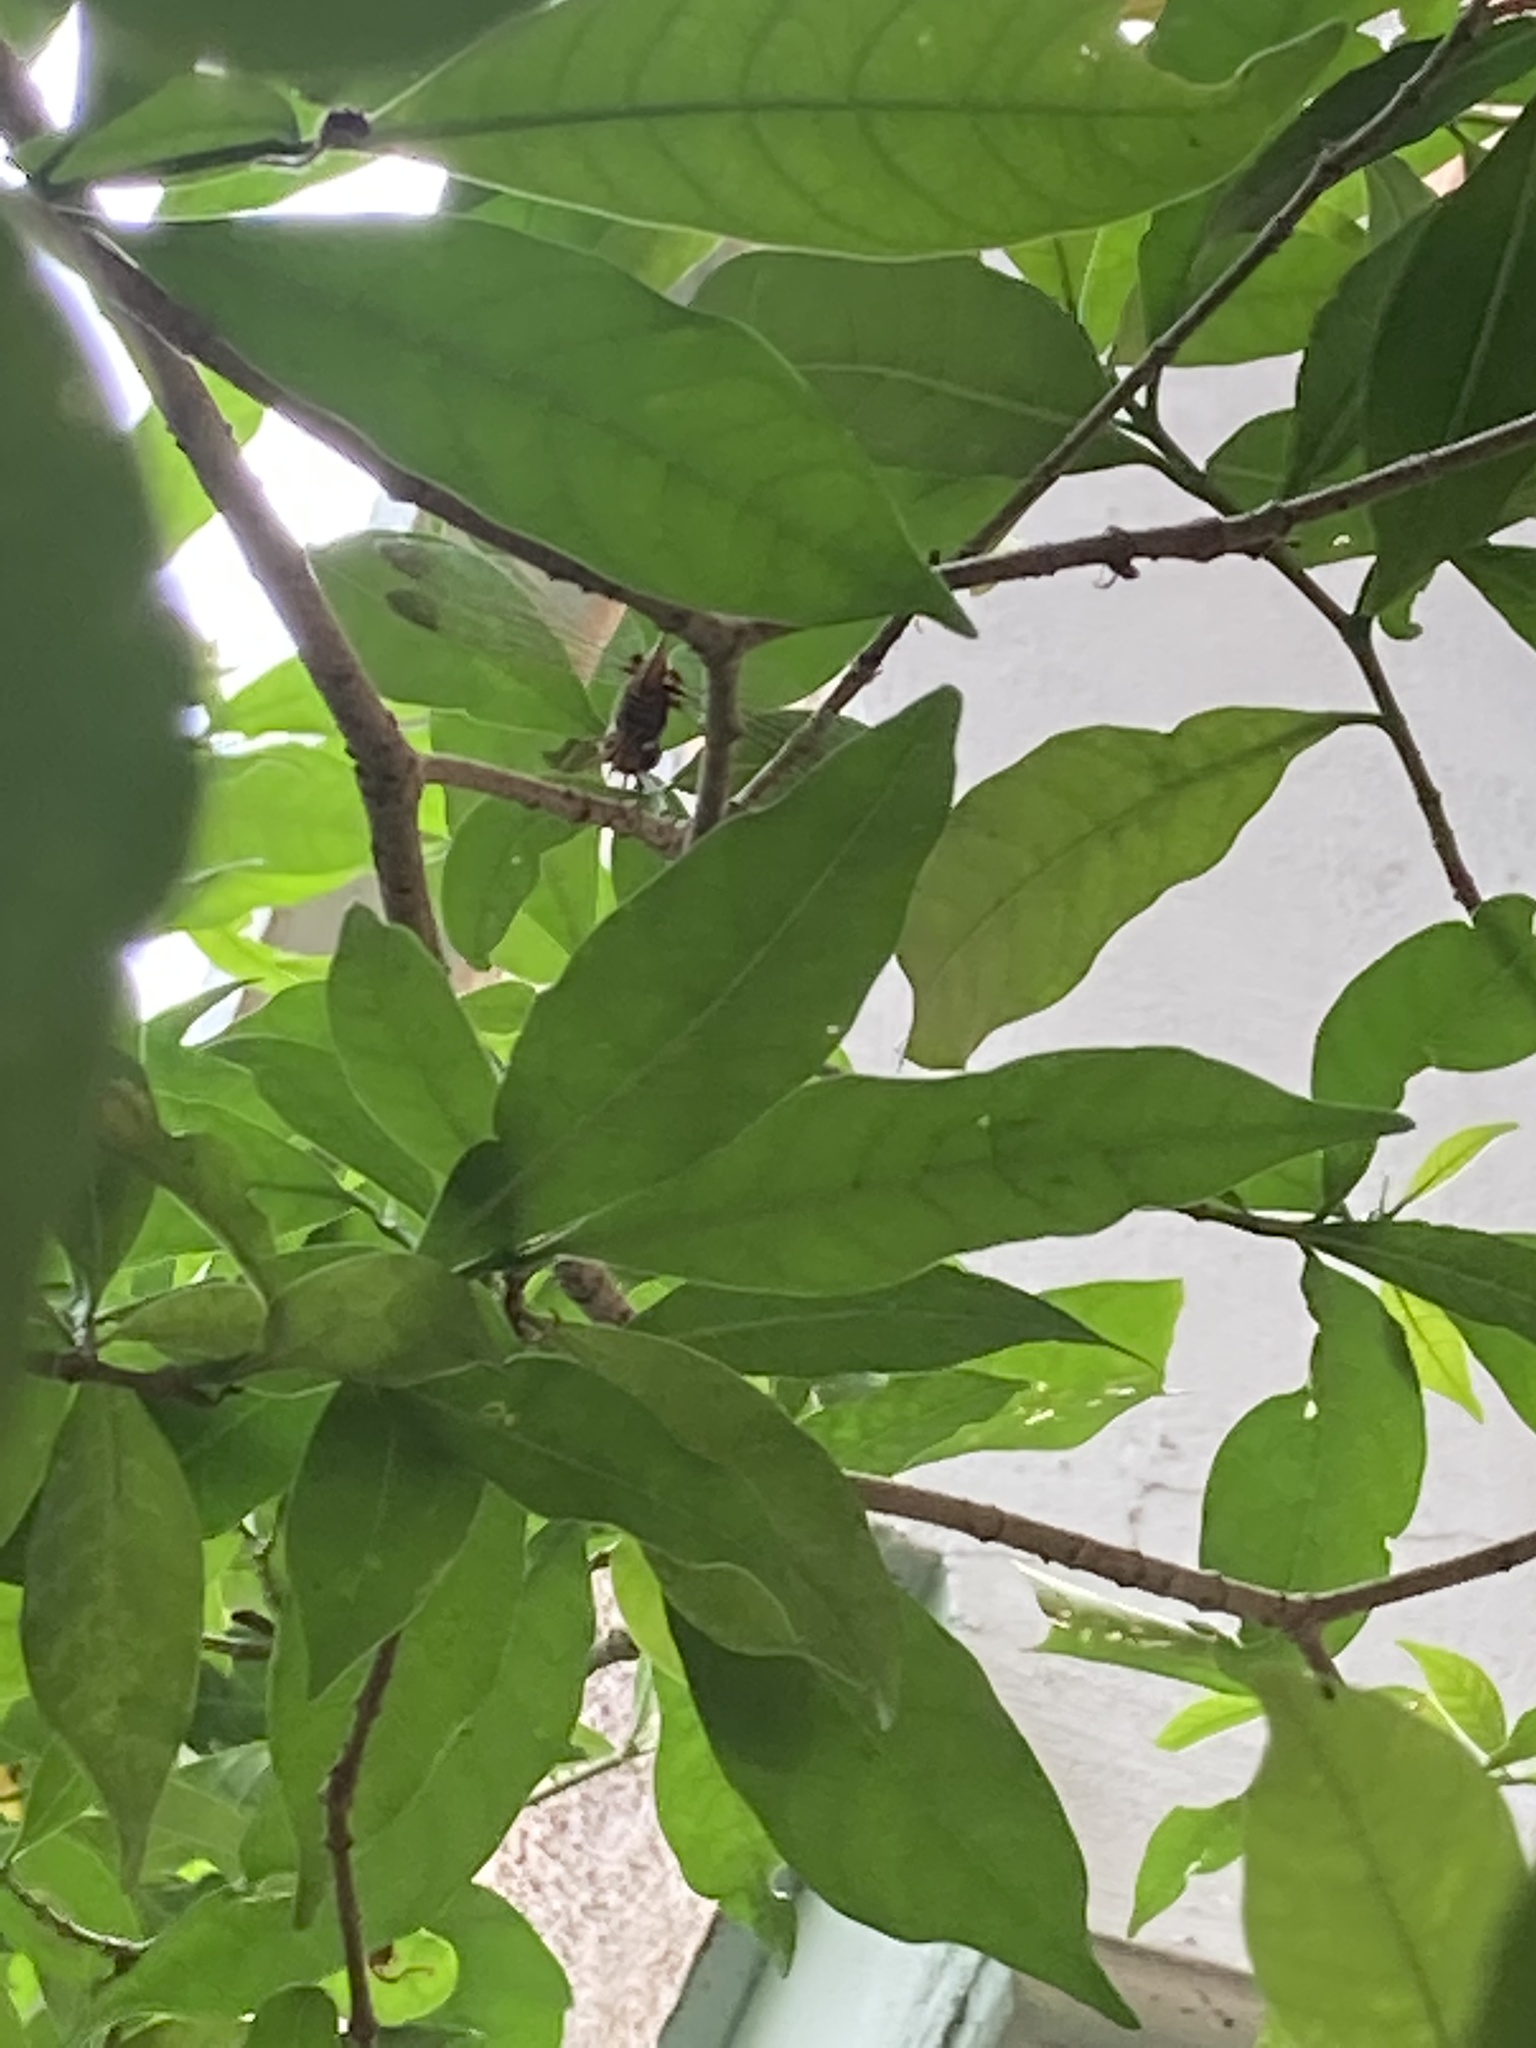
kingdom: Animalia
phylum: Arthropoda
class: Insecta
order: Odonata
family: Libellulidae
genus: Zyxomma
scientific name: Zyxomma petiolatum
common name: Dingy dusk-darter
